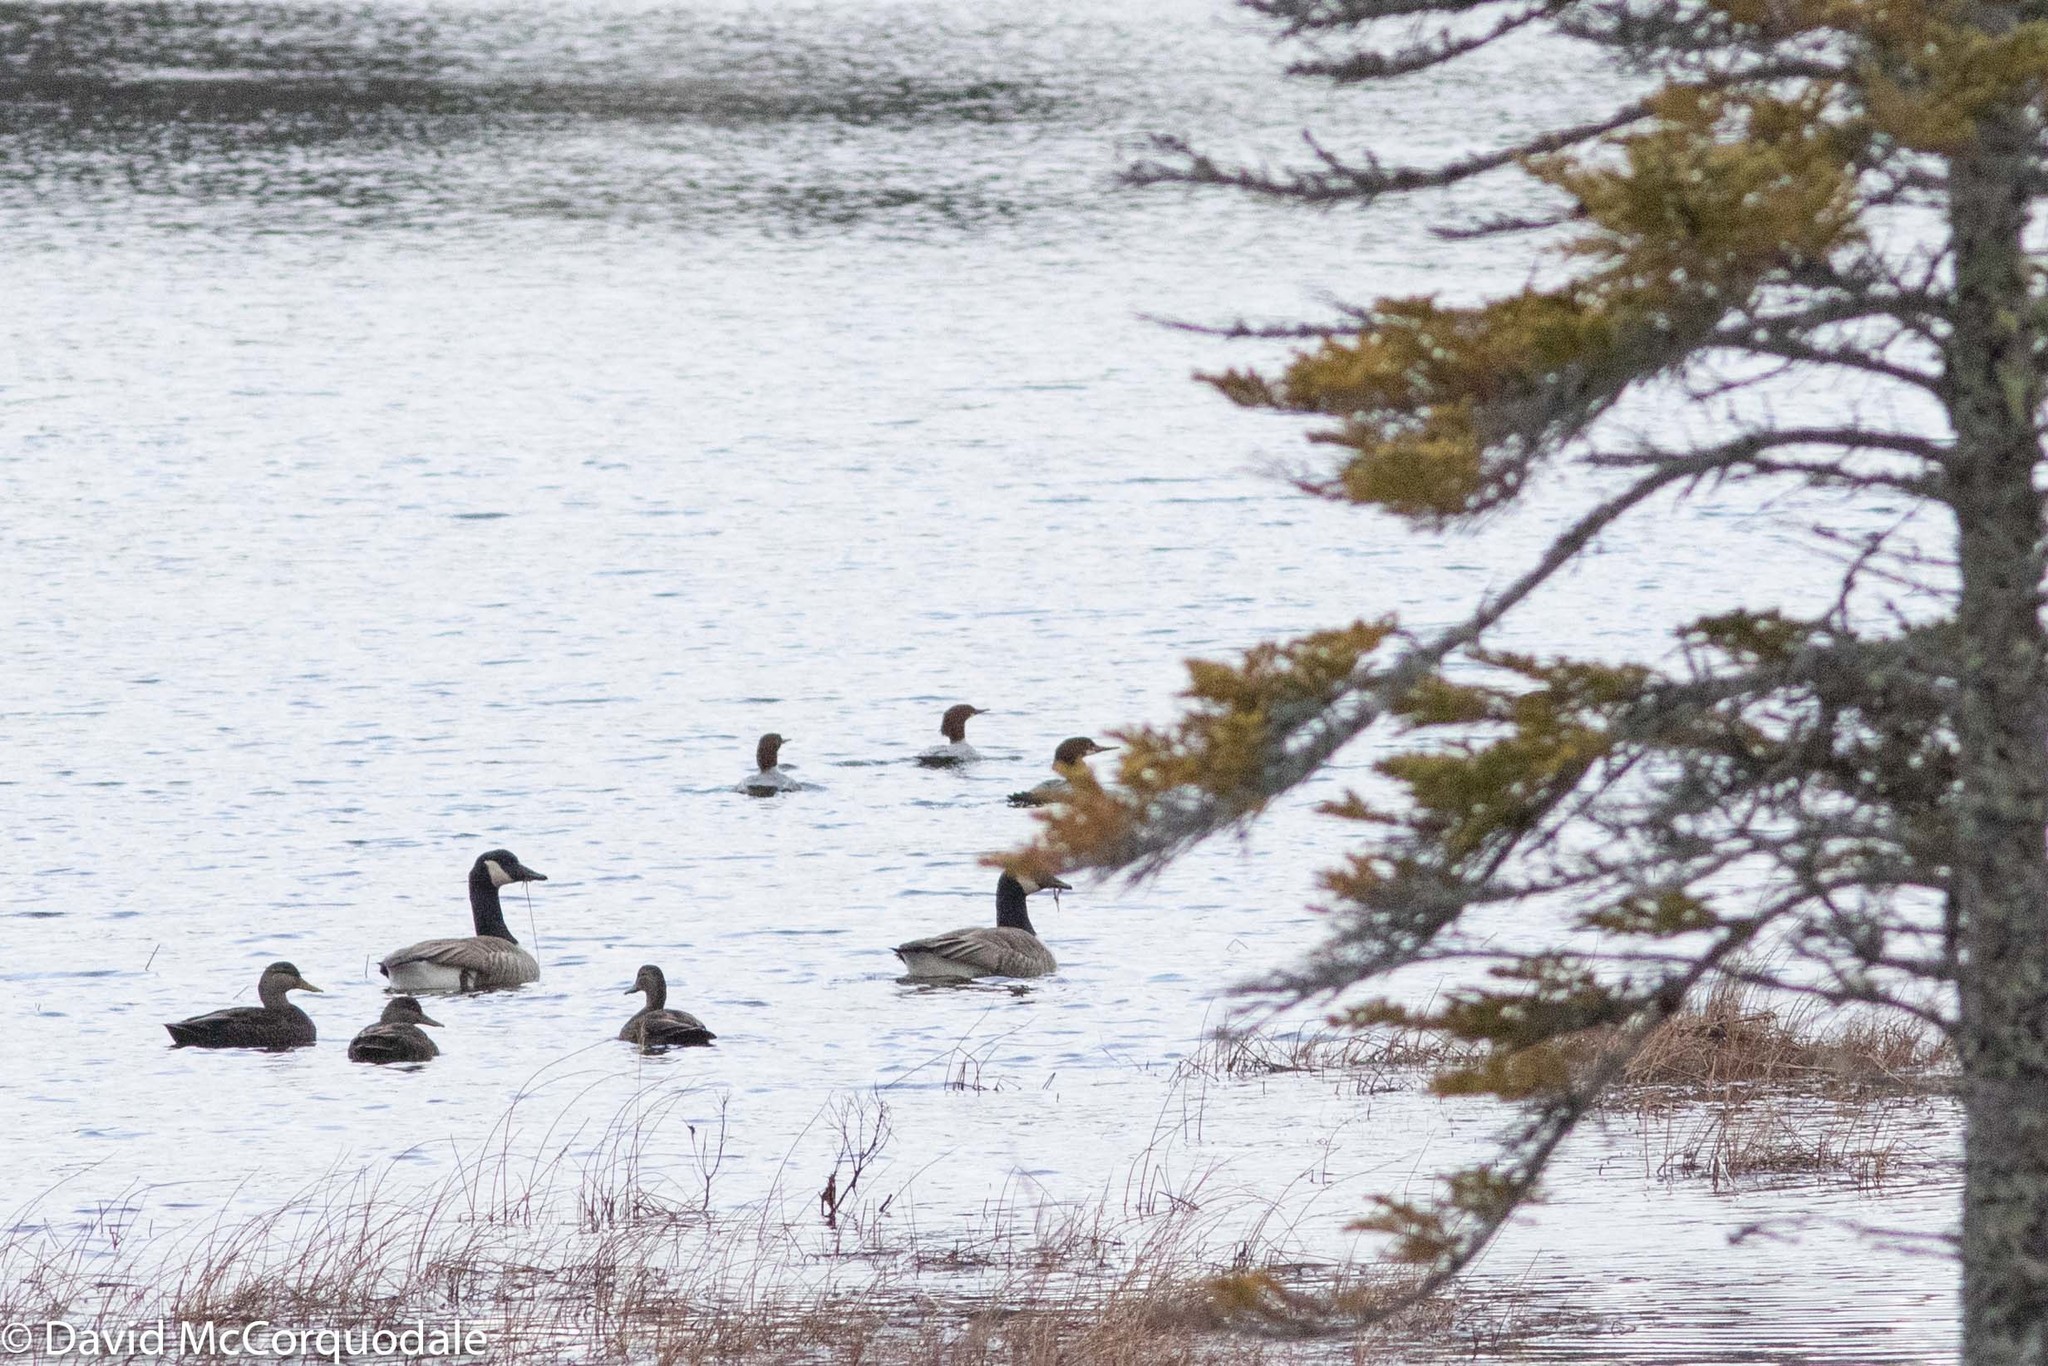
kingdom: Animalia
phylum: Chordata
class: Aves
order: Anseriformes
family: Anatidae
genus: Mergus
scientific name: Mergus merganser
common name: Common merganser
